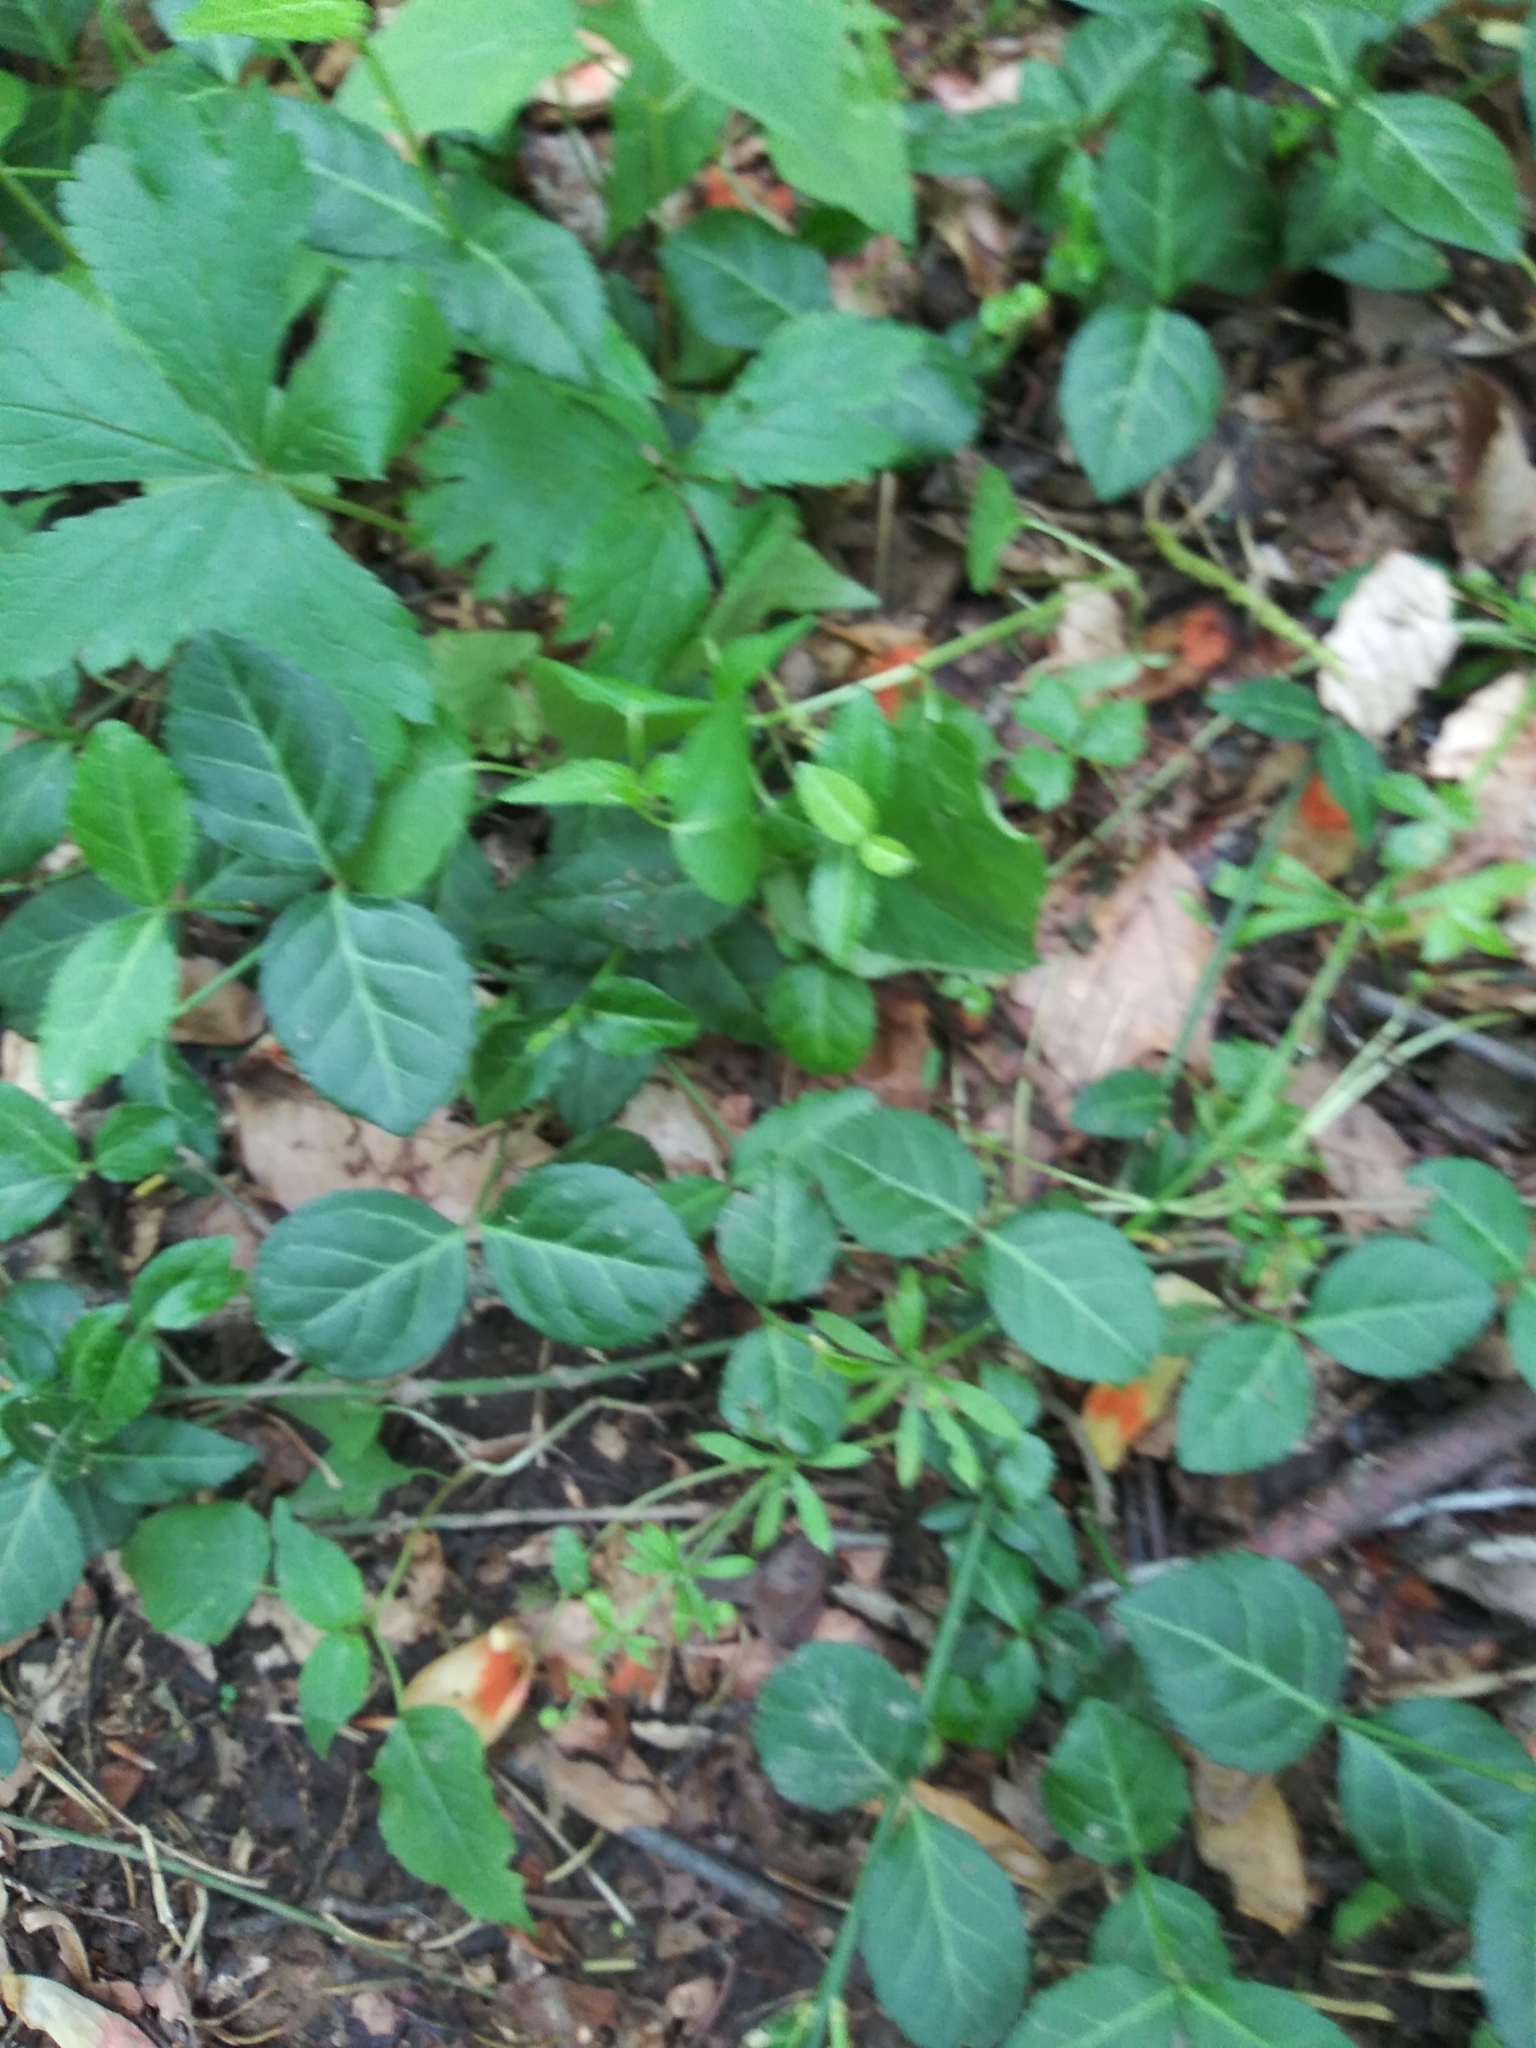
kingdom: Plantae
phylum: Tracheophyta
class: Magnoliopsida
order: Celastrales
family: Celastraceae
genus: Euonymus
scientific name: Euonymus fortunei
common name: Climbing euonymus
